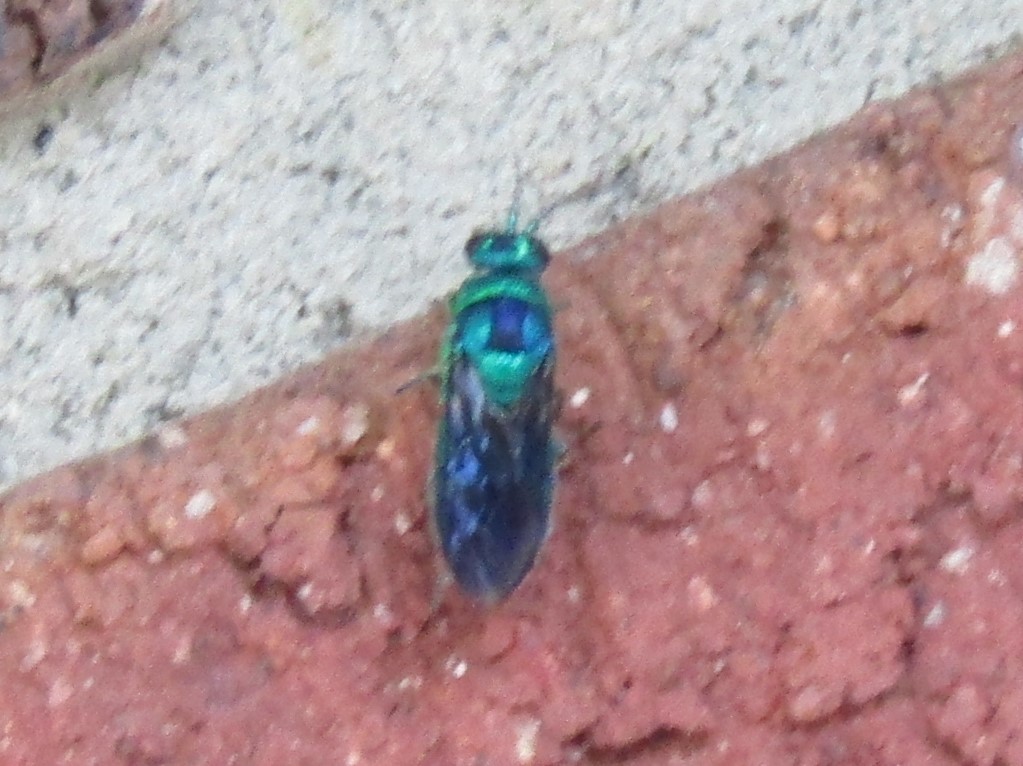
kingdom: Animalia
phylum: Arthropoda
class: Insecta
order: Hymenoptera
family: Chrysididae
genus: Chrysis
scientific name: Chrysis angolensis
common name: Cuckoo wasp
